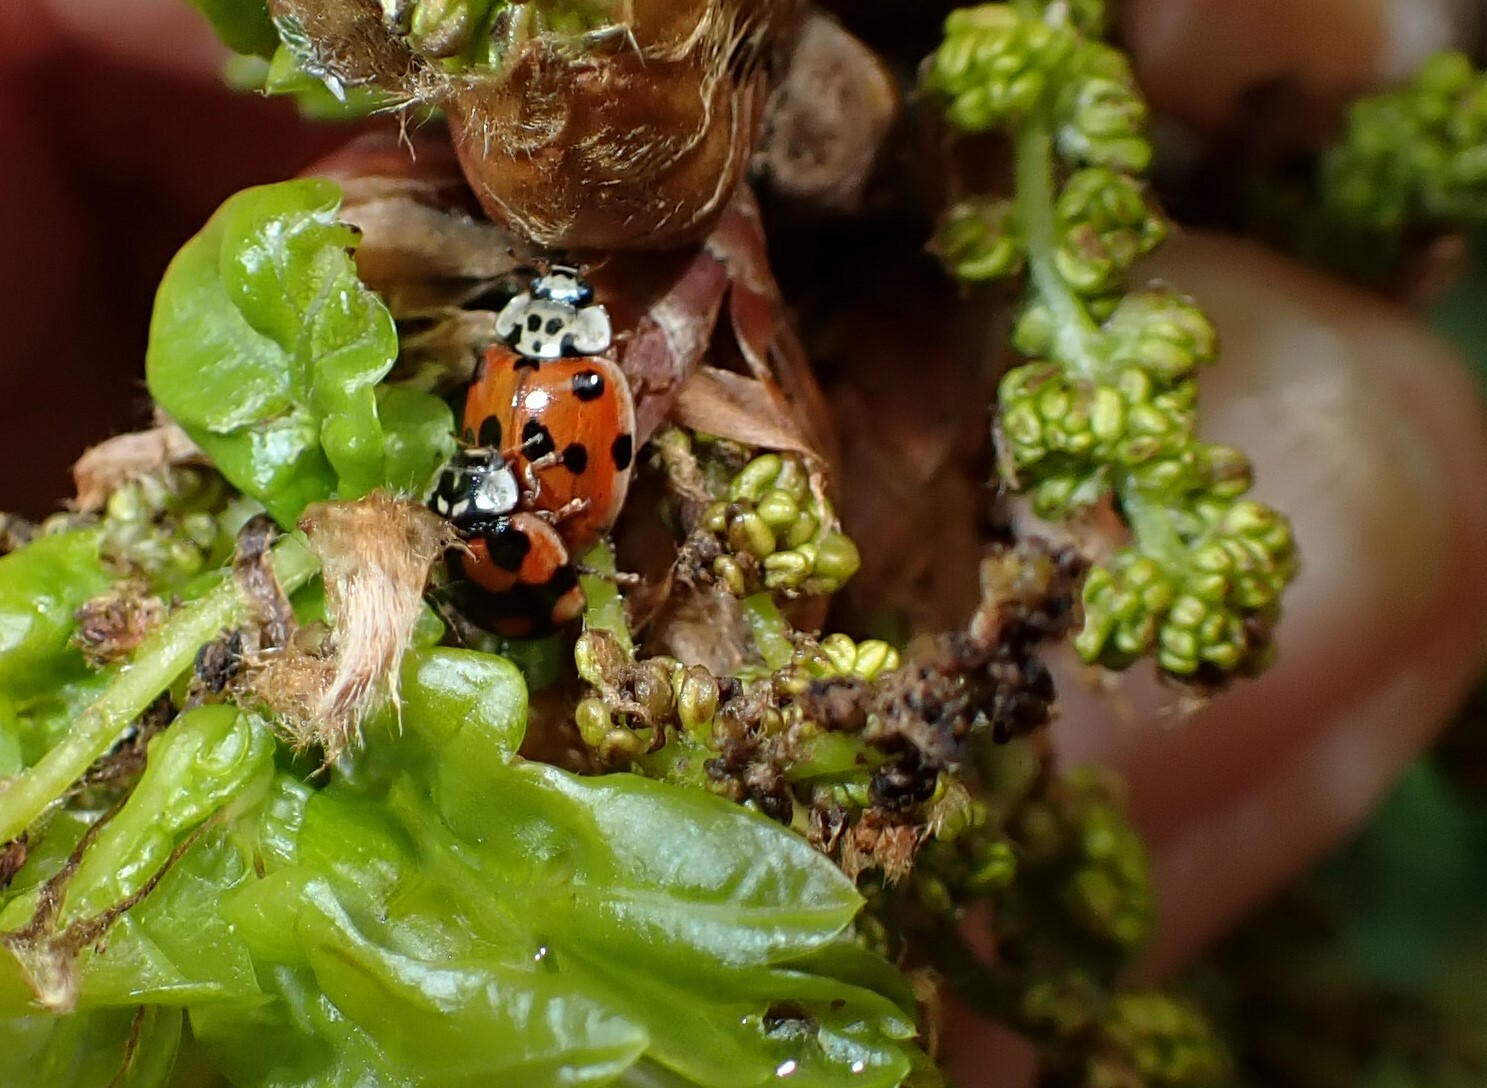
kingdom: Animalia
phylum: Arthropoda
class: Insecta
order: Coleoptera
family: Coccinellidae
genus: Adalia
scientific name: Adalia decempunctata
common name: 10-spot ladybird
